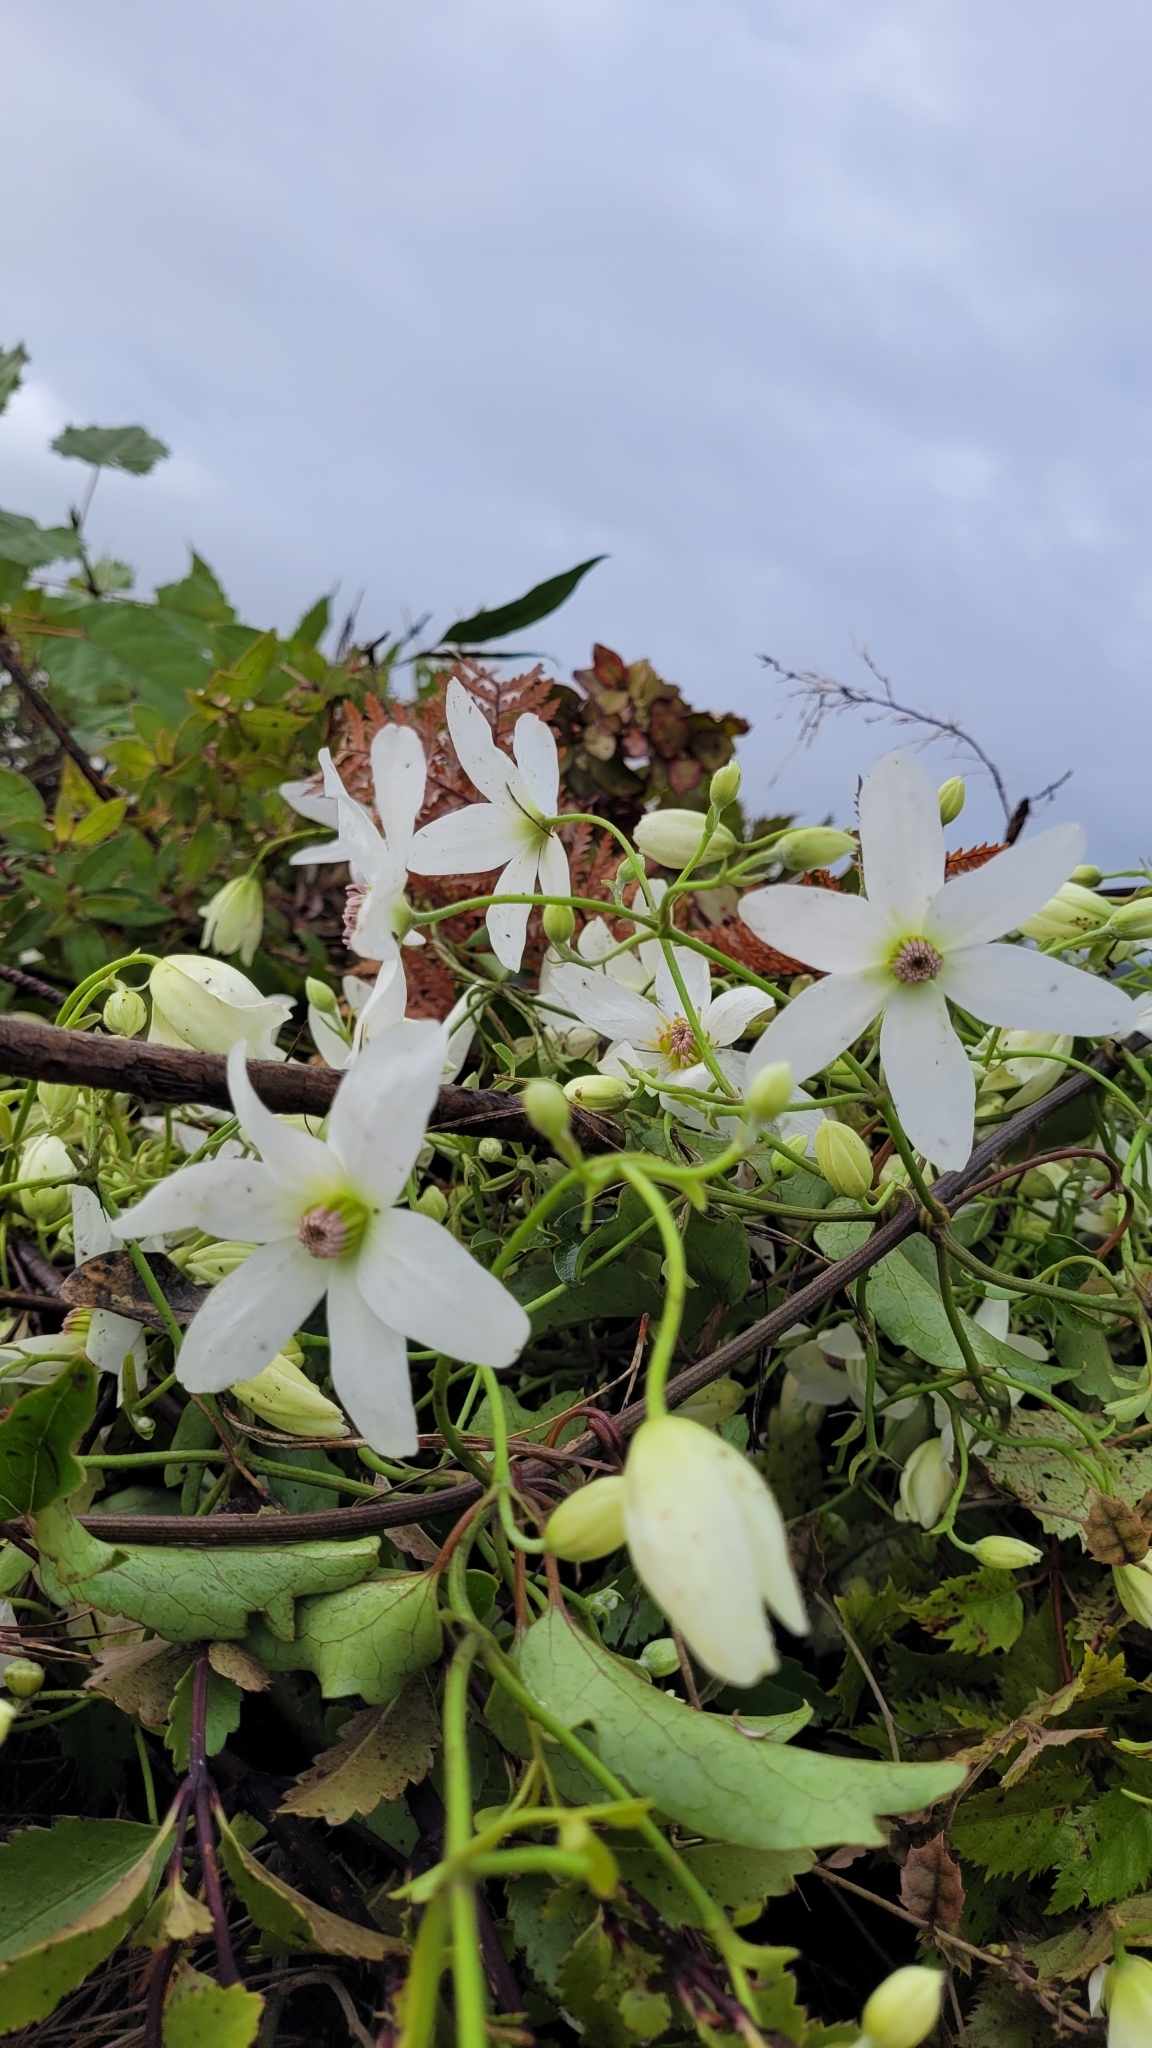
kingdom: Plantae
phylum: Tracheophyta
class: Magnoliopsida
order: Ranunculales
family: Ranunculaceae
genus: Clematis
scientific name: Clematis paniculata
